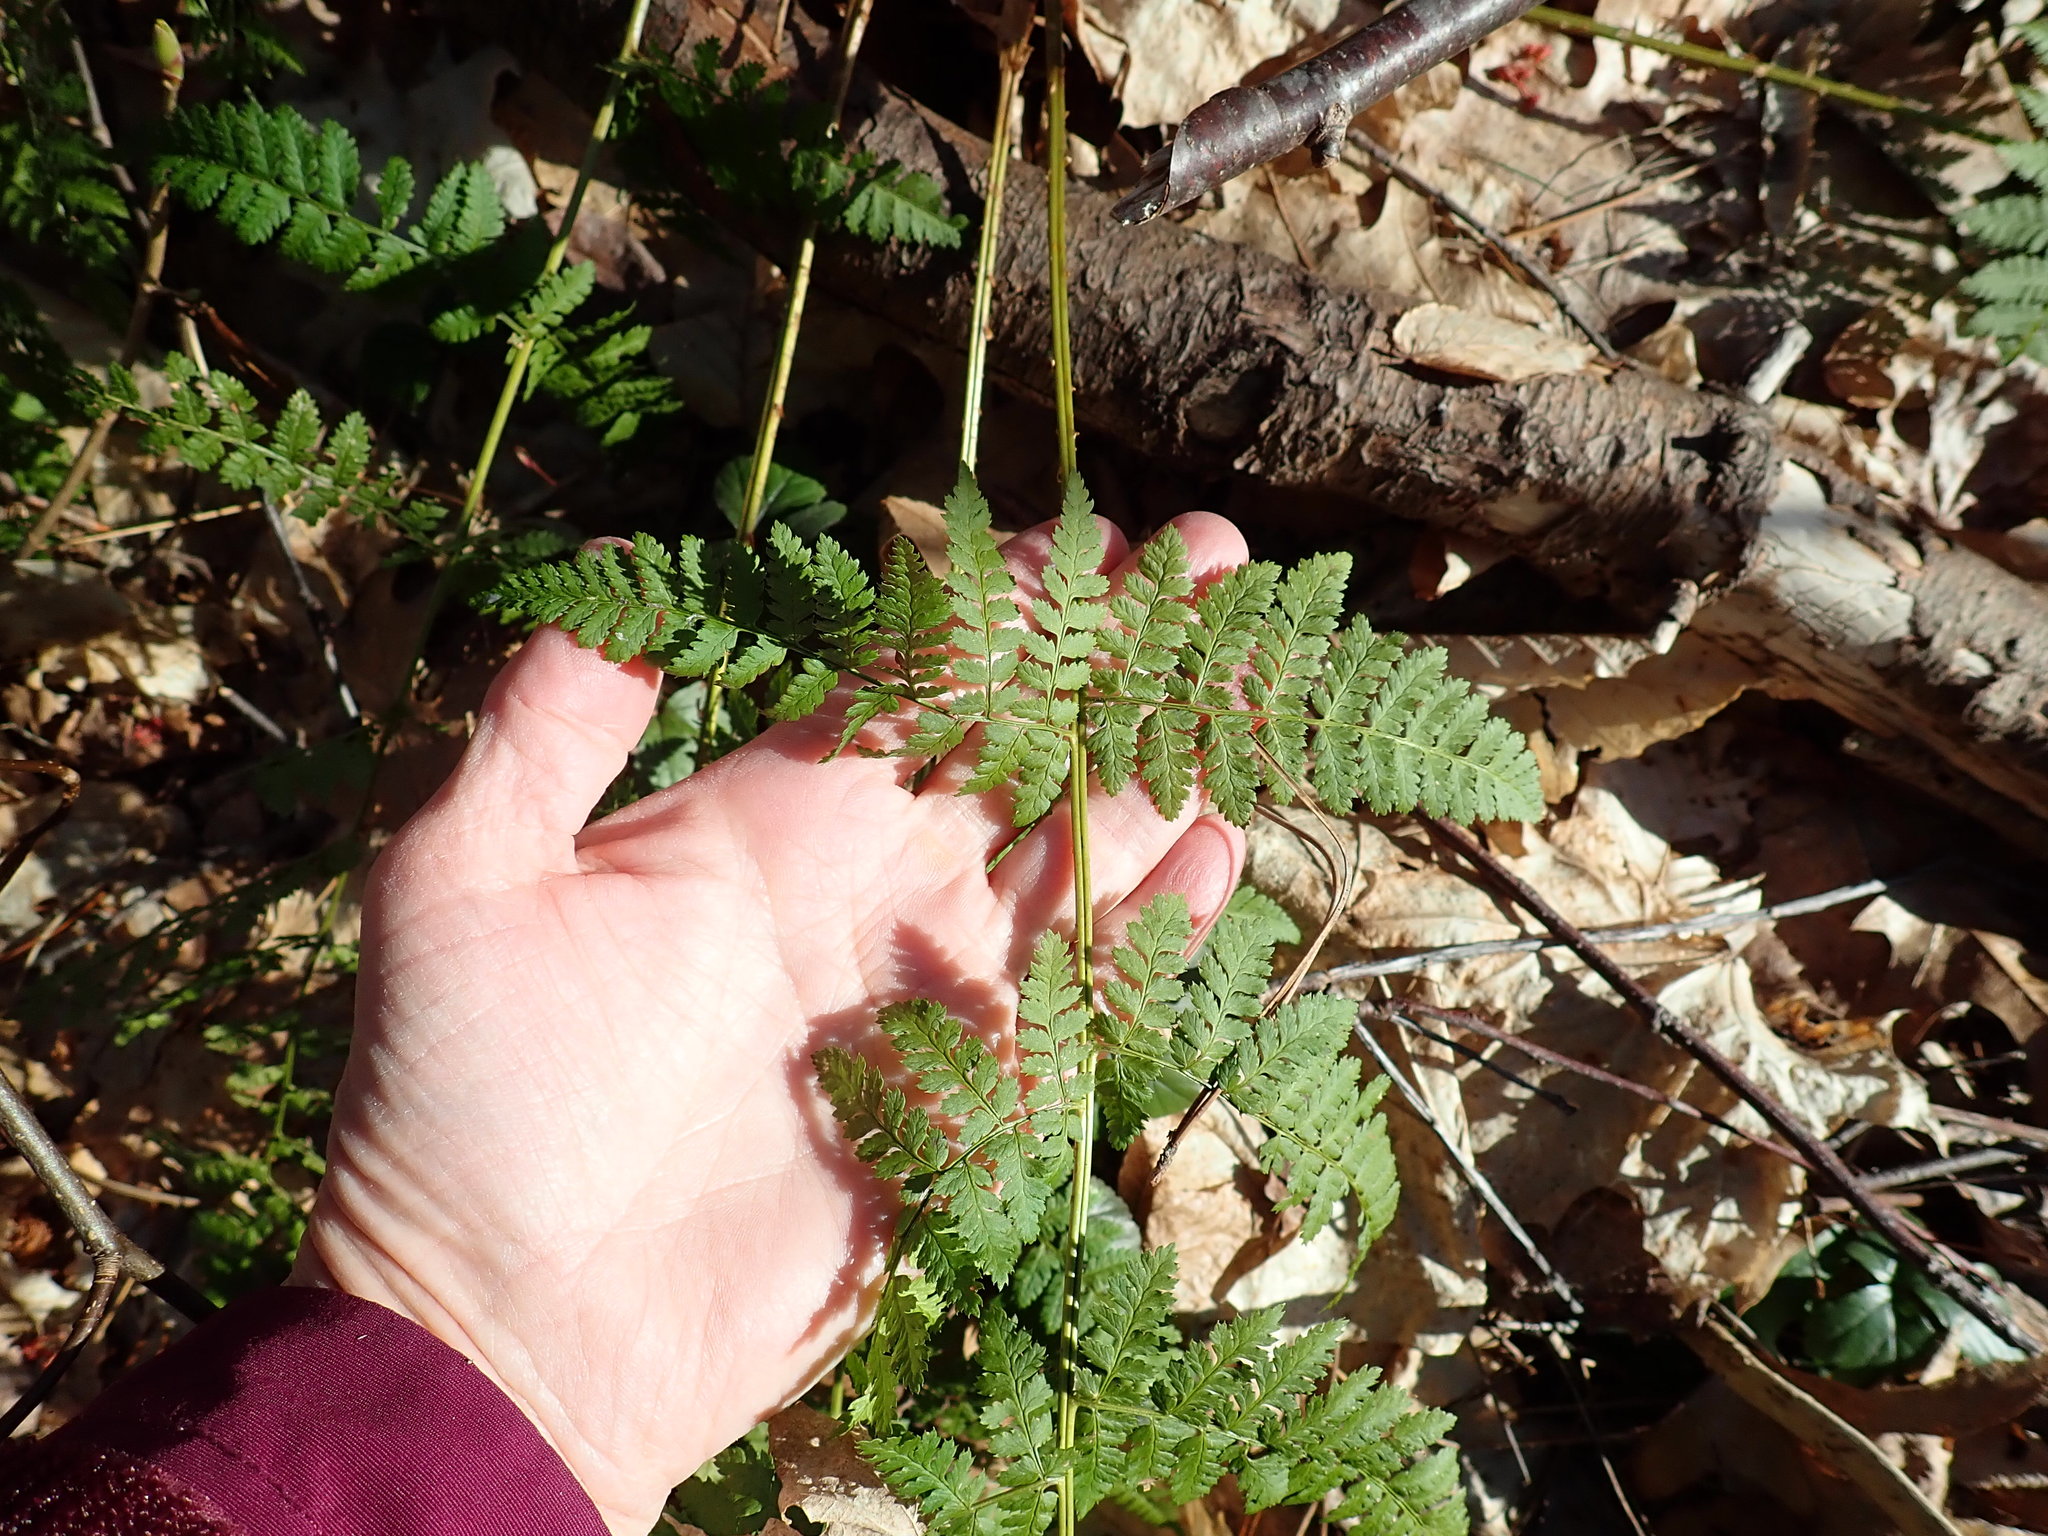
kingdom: Plantae
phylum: Tracheophyta
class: Polypodiopsida
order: Polypodiales
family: Dryopteridaceae
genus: Dryopteris
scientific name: Dryopteris intermedia
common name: Evergreen wood fern
